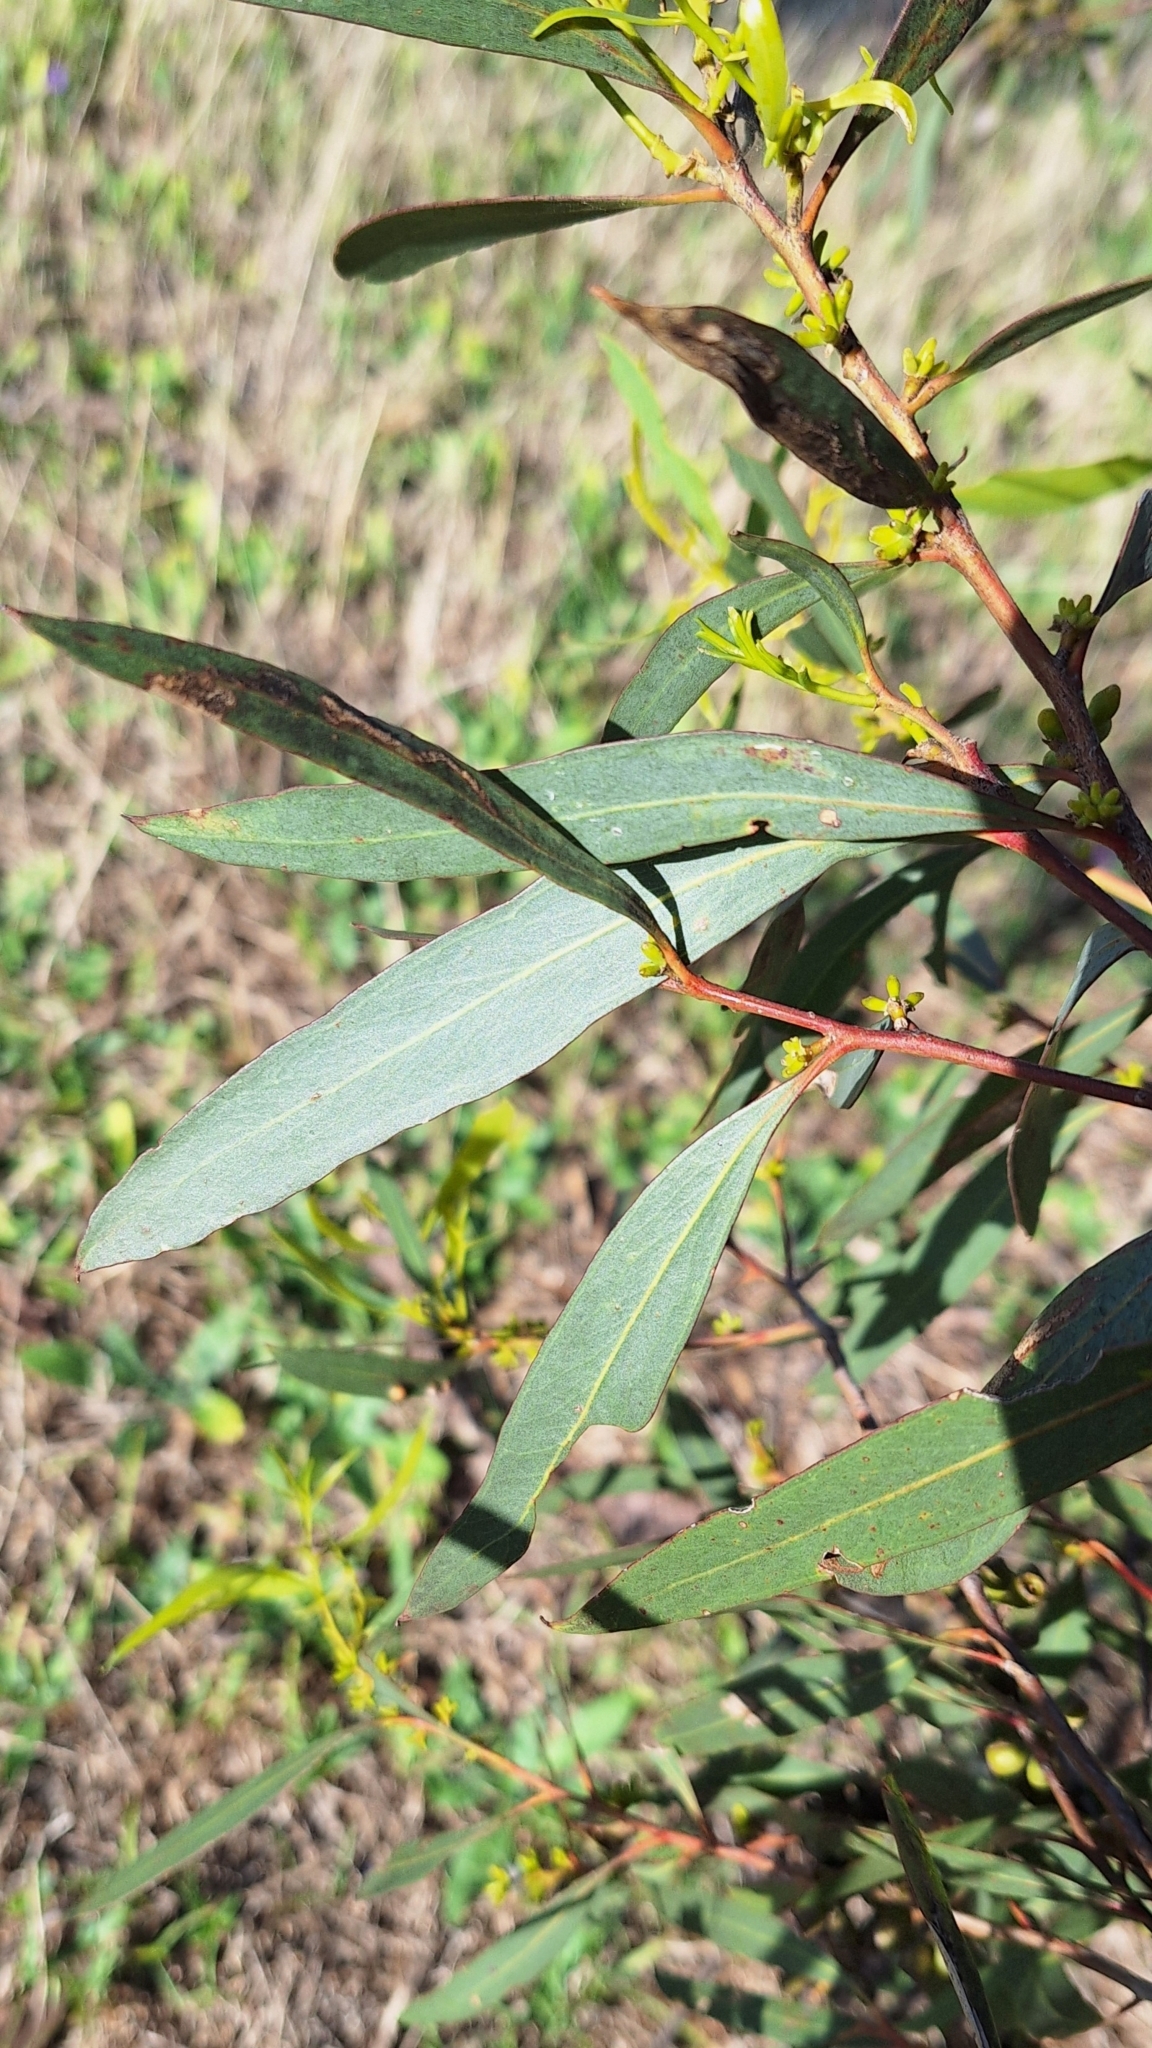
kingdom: Plantae
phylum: Tracheophyta
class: Magnoliopsida
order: Myrtales
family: Myrtaceae
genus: Eucalyptus
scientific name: Eucalyptus odorata
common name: Peppermint box
